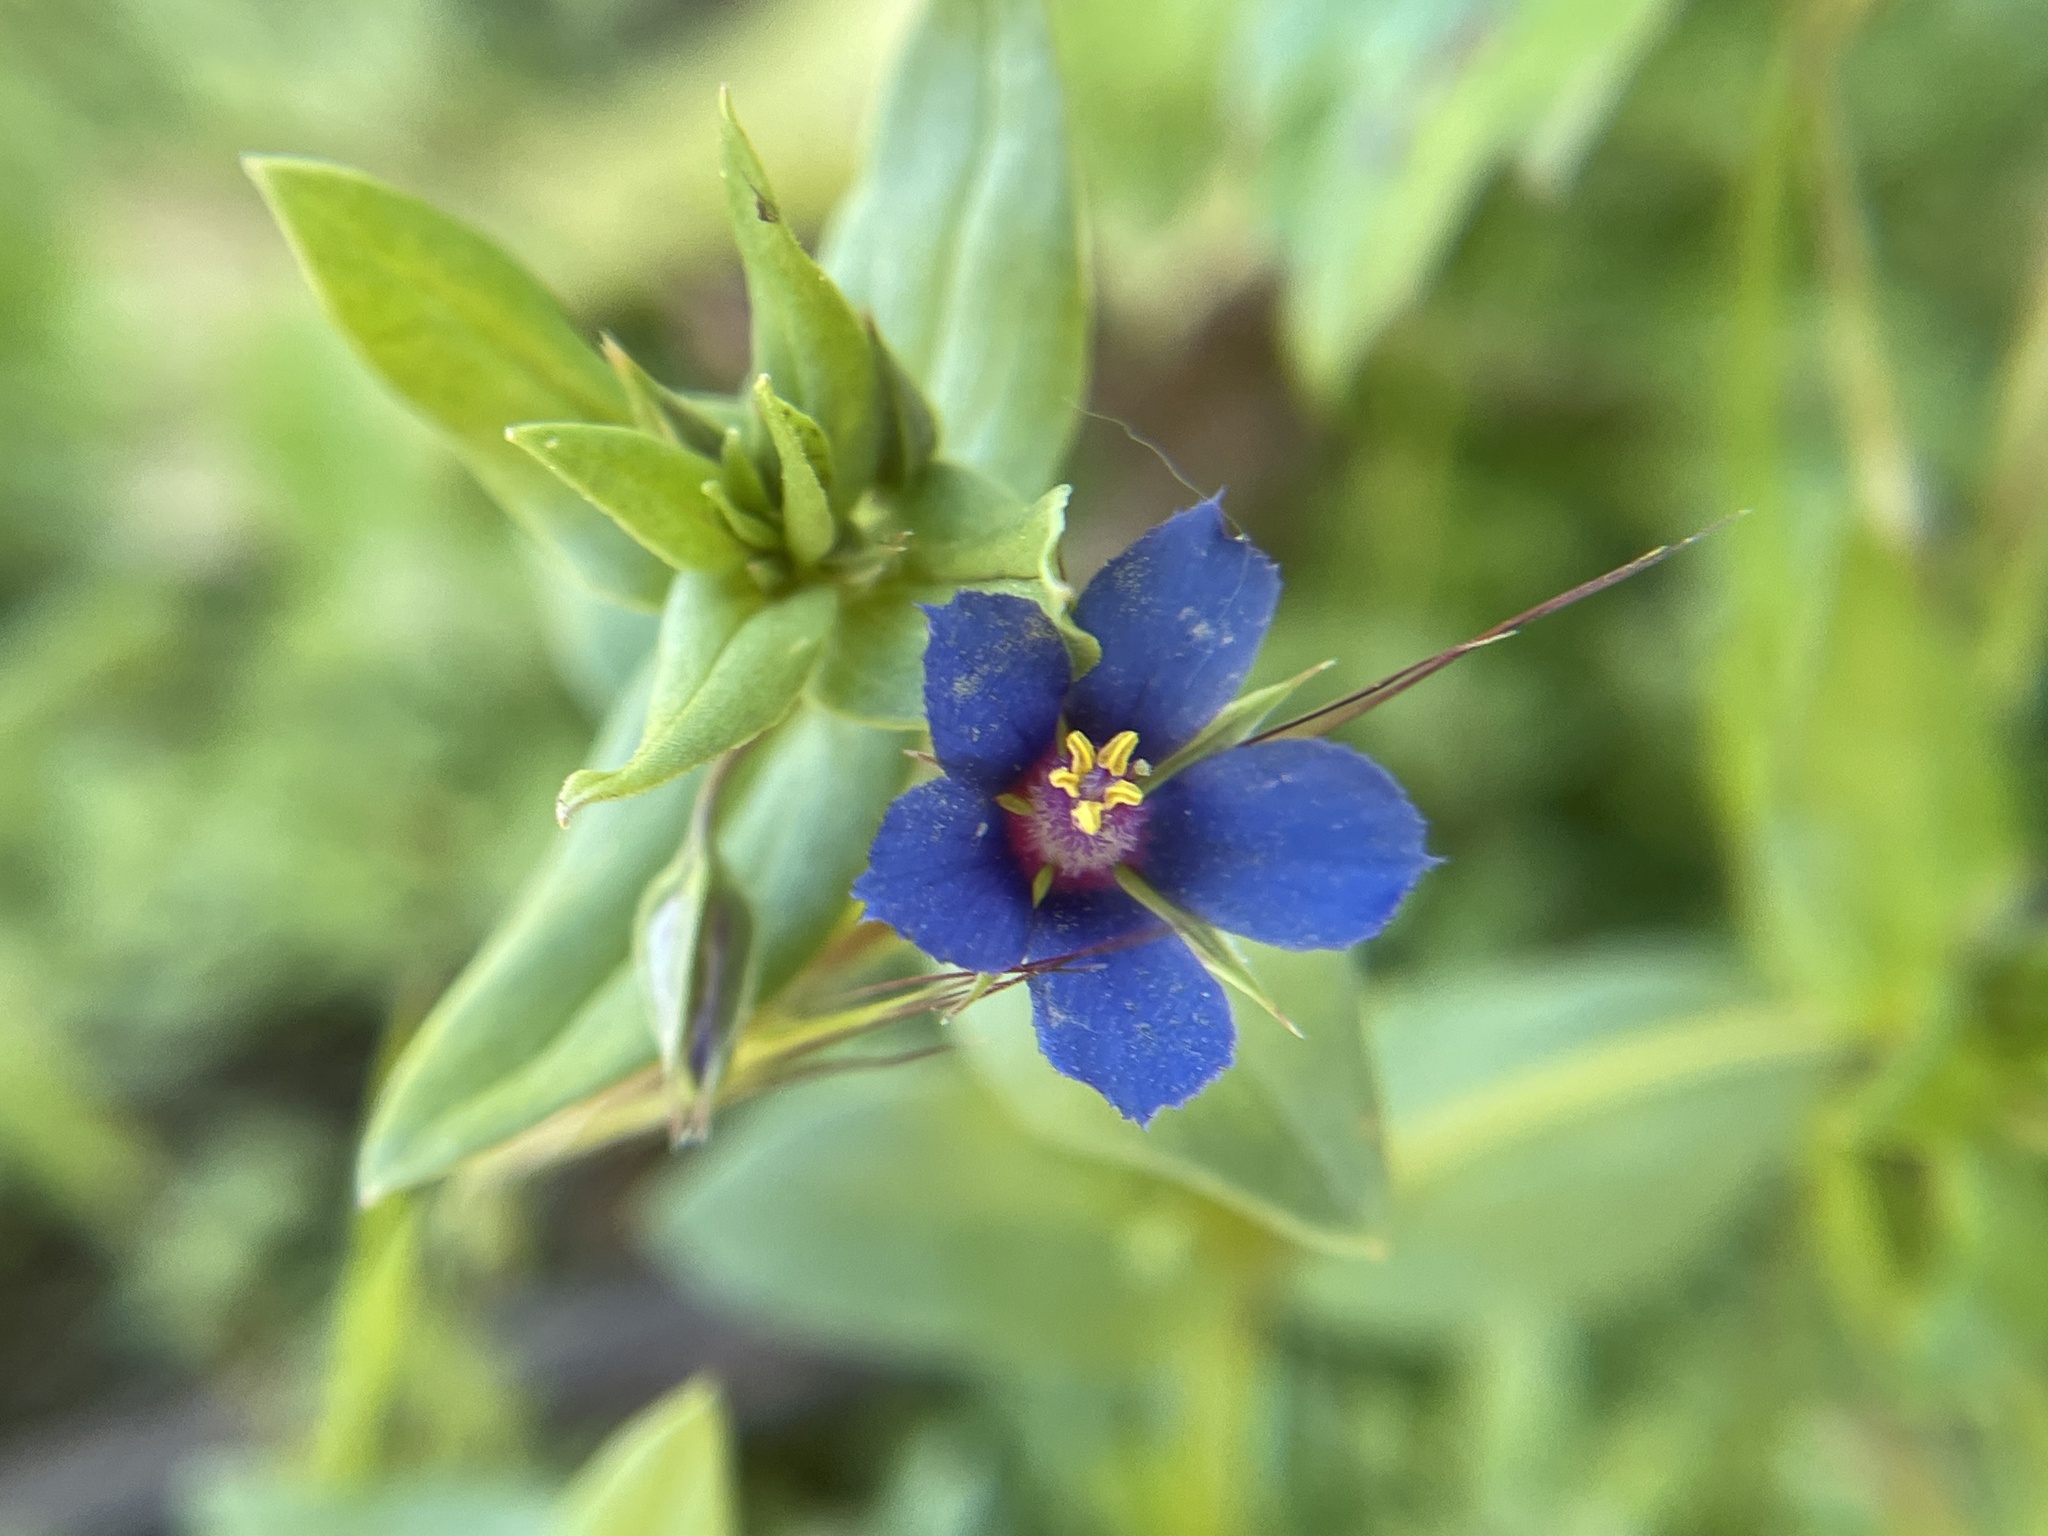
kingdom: Plantae
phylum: Tracheophyta
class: Magnoliopsida
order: Ericales
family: Primulaceae
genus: Lysimachia
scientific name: Lysimachia loeflingii
